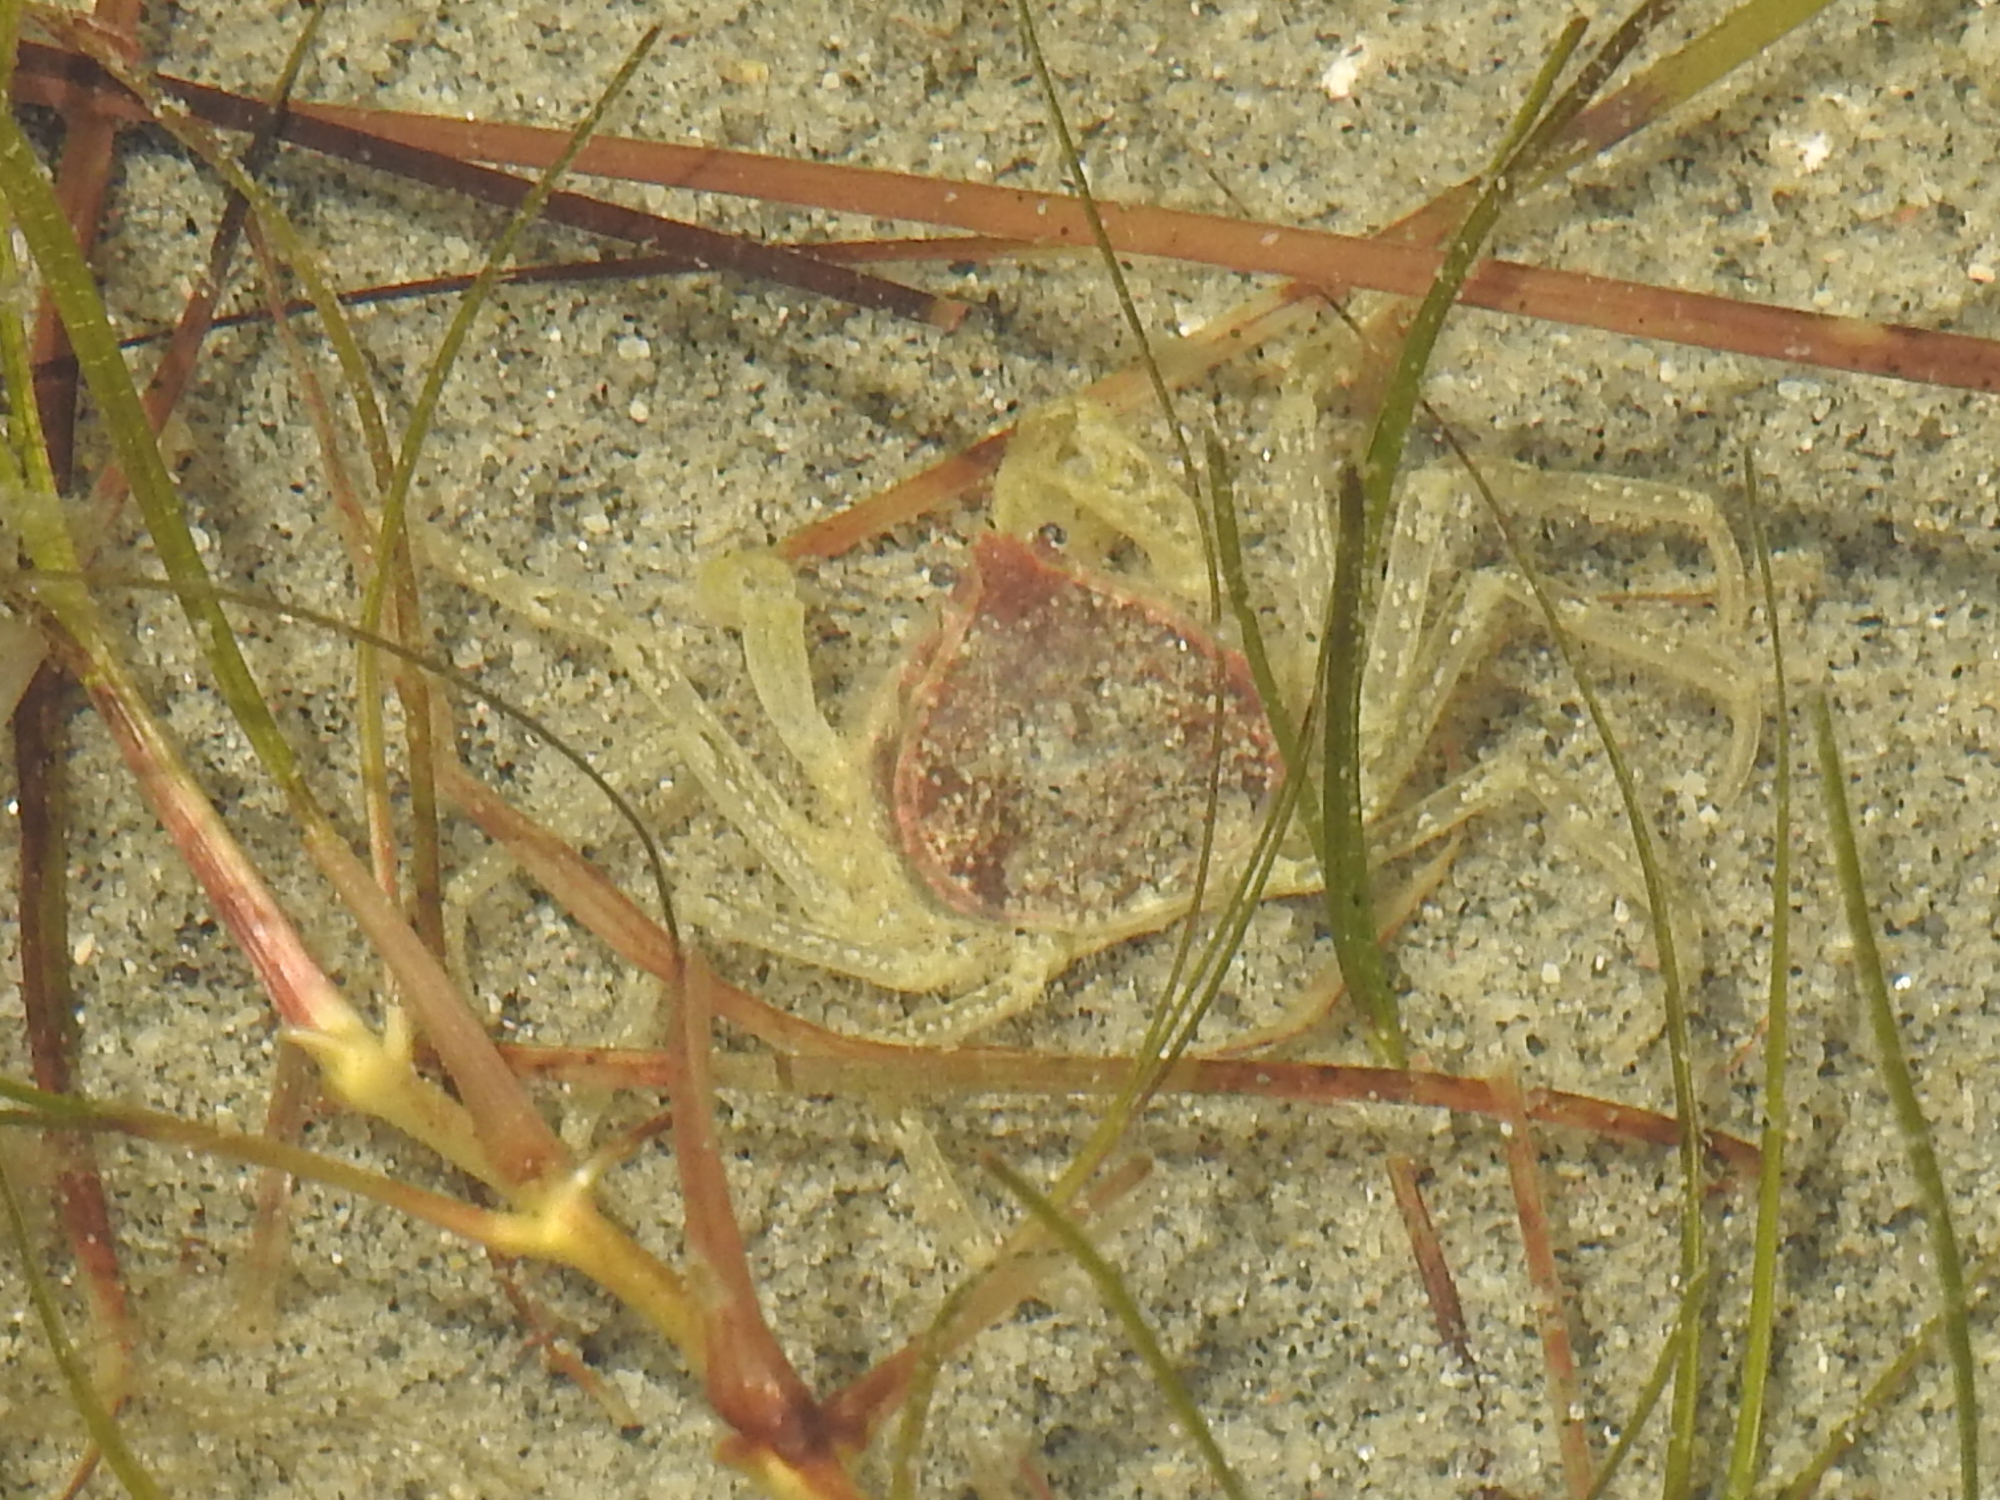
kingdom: Animalia
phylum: Arthropoda
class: Malacostraca
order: Decapoda
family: Hymenosomatidae
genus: Halicarcinus
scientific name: Halicarcinus whitei
